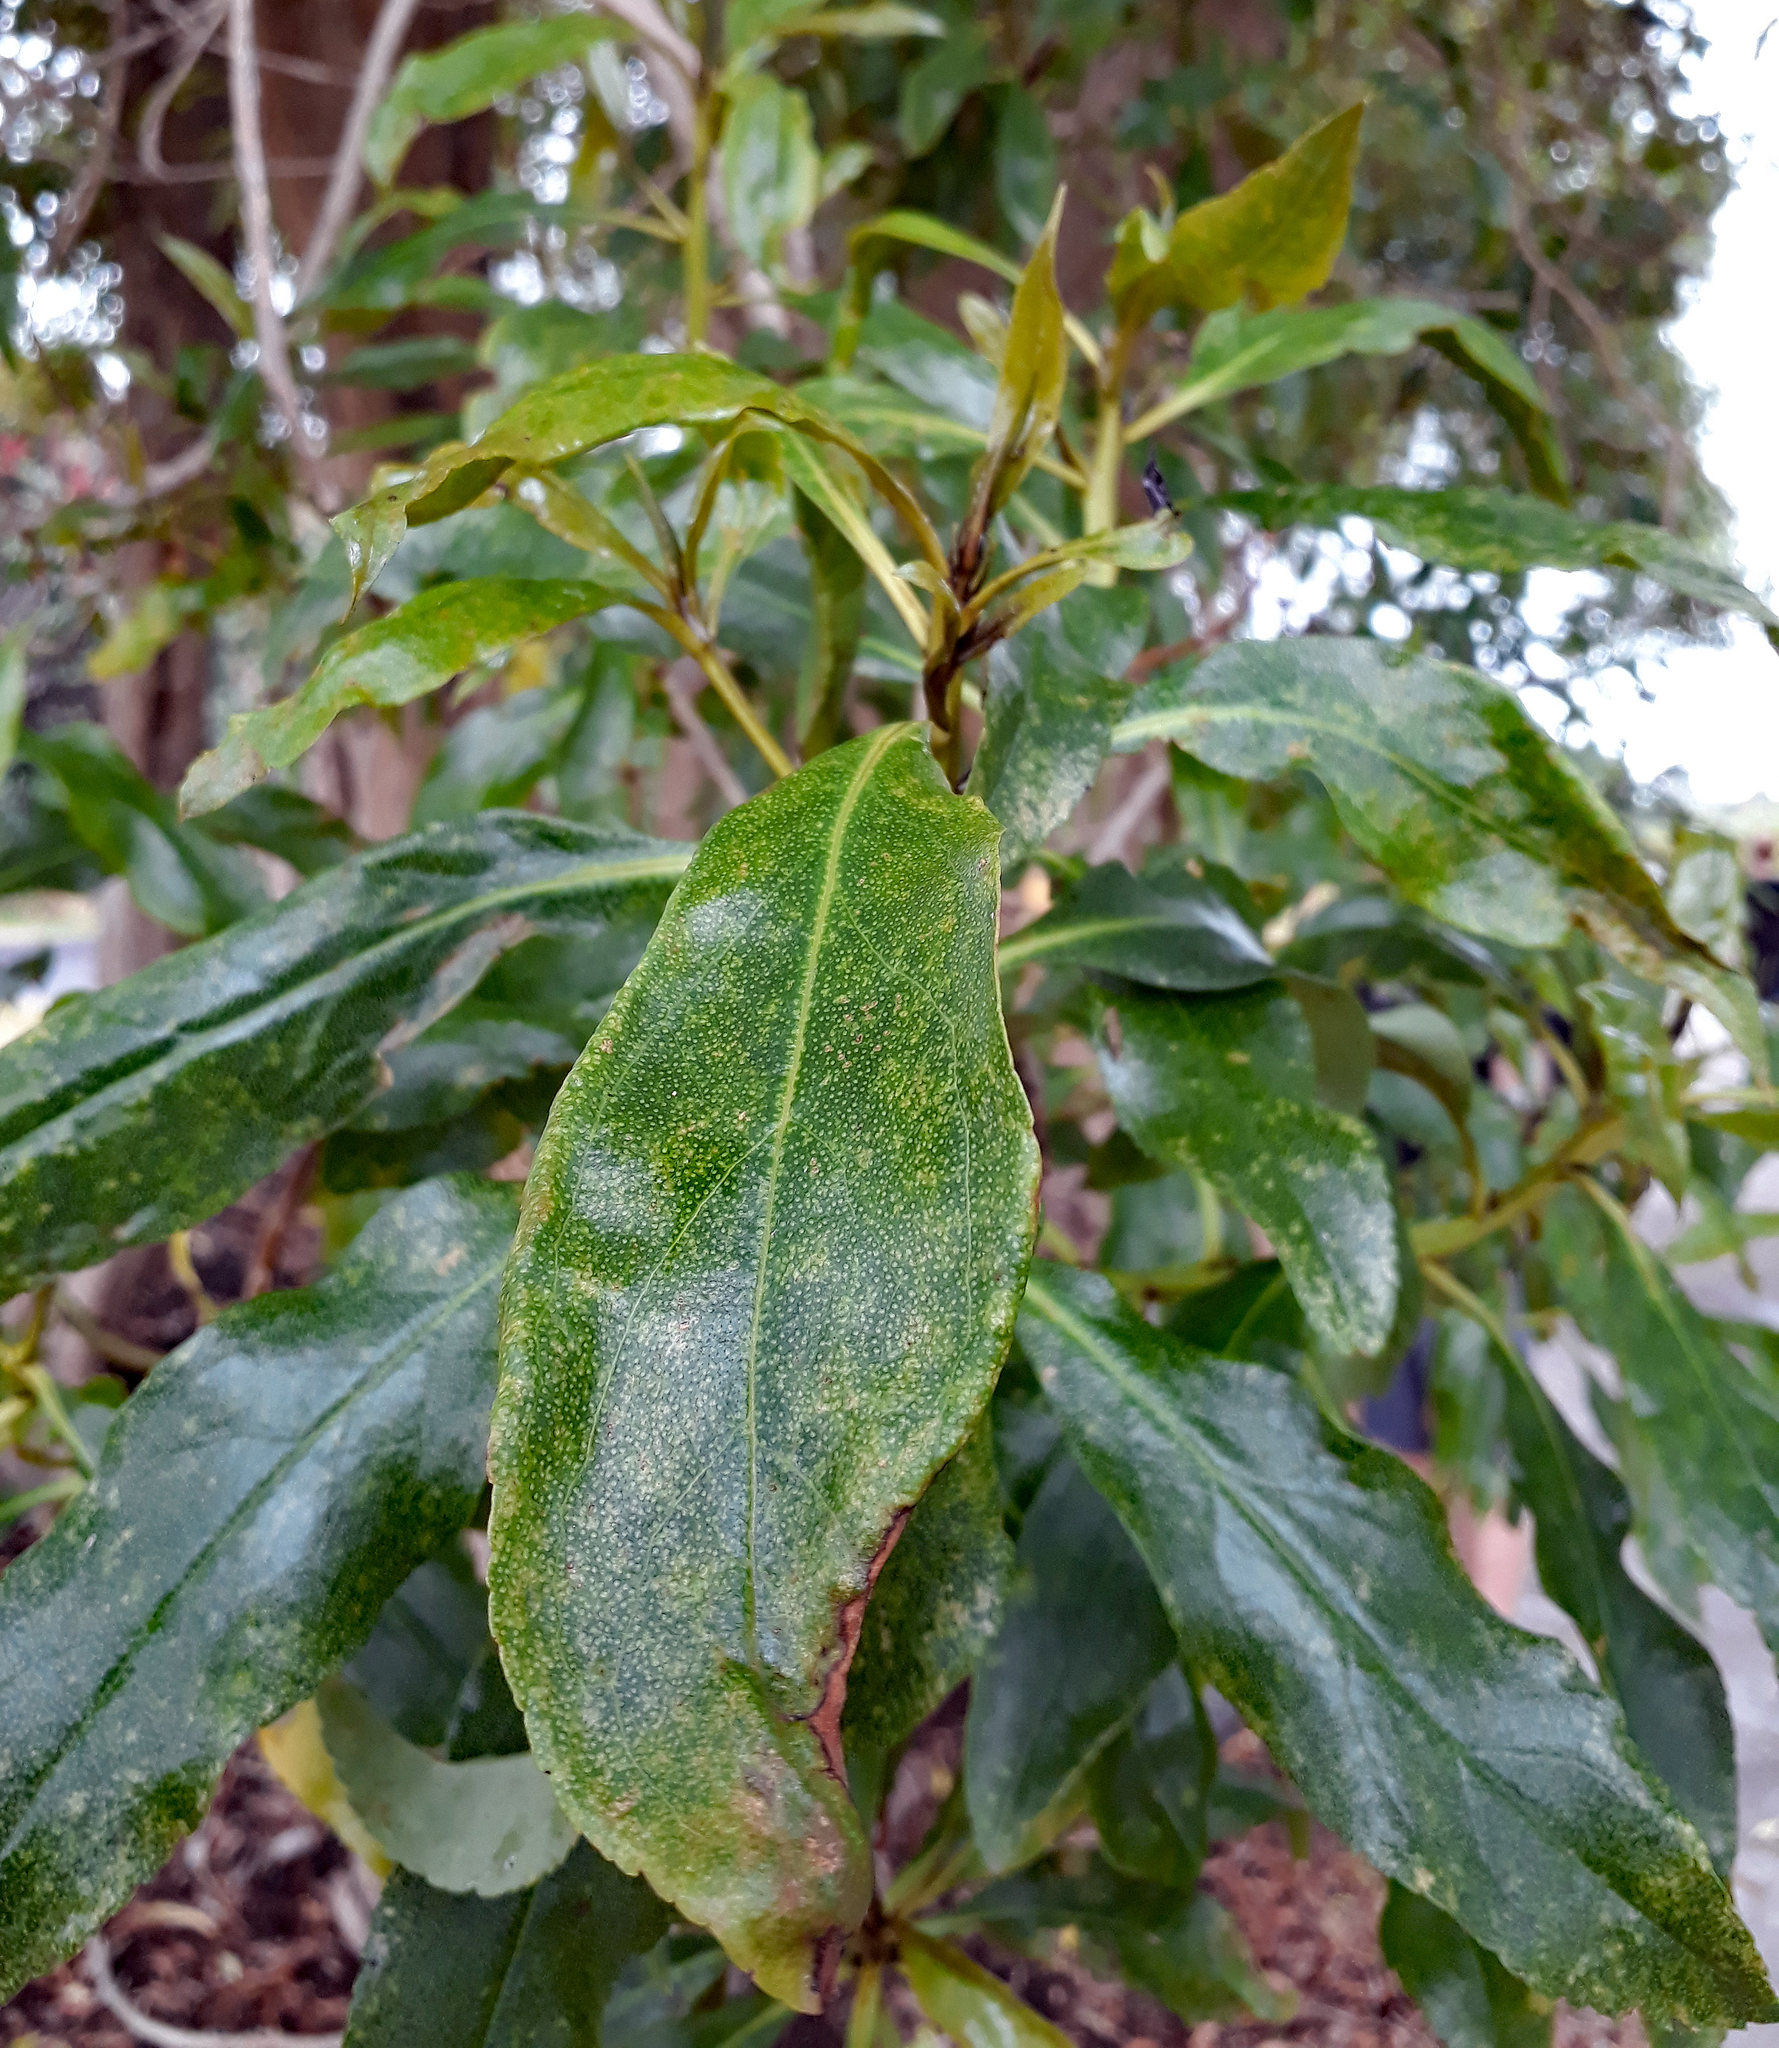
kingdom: Plantae
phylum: Tracheophyta
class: Magnoliopsida
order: Lamiales
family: Scrophulariaceae
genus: Myoporum
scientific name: Myoporum laetum
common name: Ngaio tree
